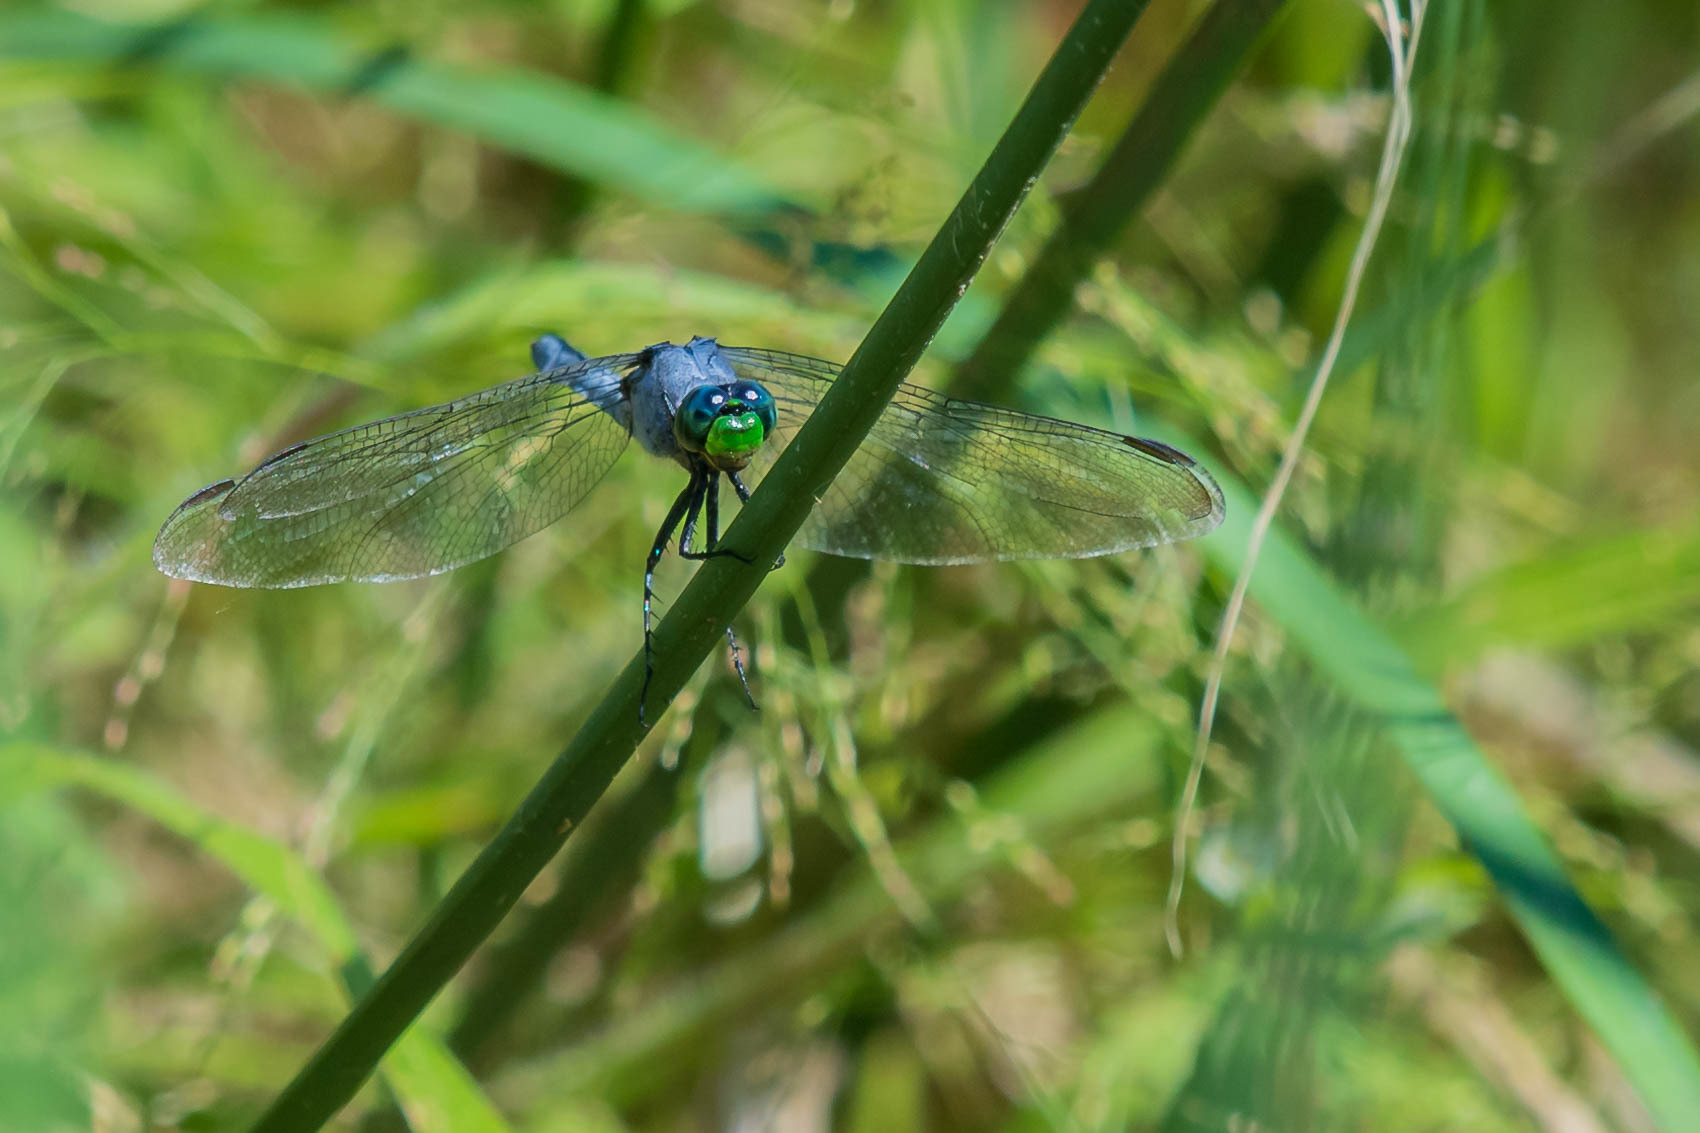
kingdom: Animalia
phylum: Arthropoda
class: Insecta
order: Odonata
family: Libellulidae
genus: Erythemis
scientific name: Erythemis simplicicollis
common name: Eastern pondhawk
